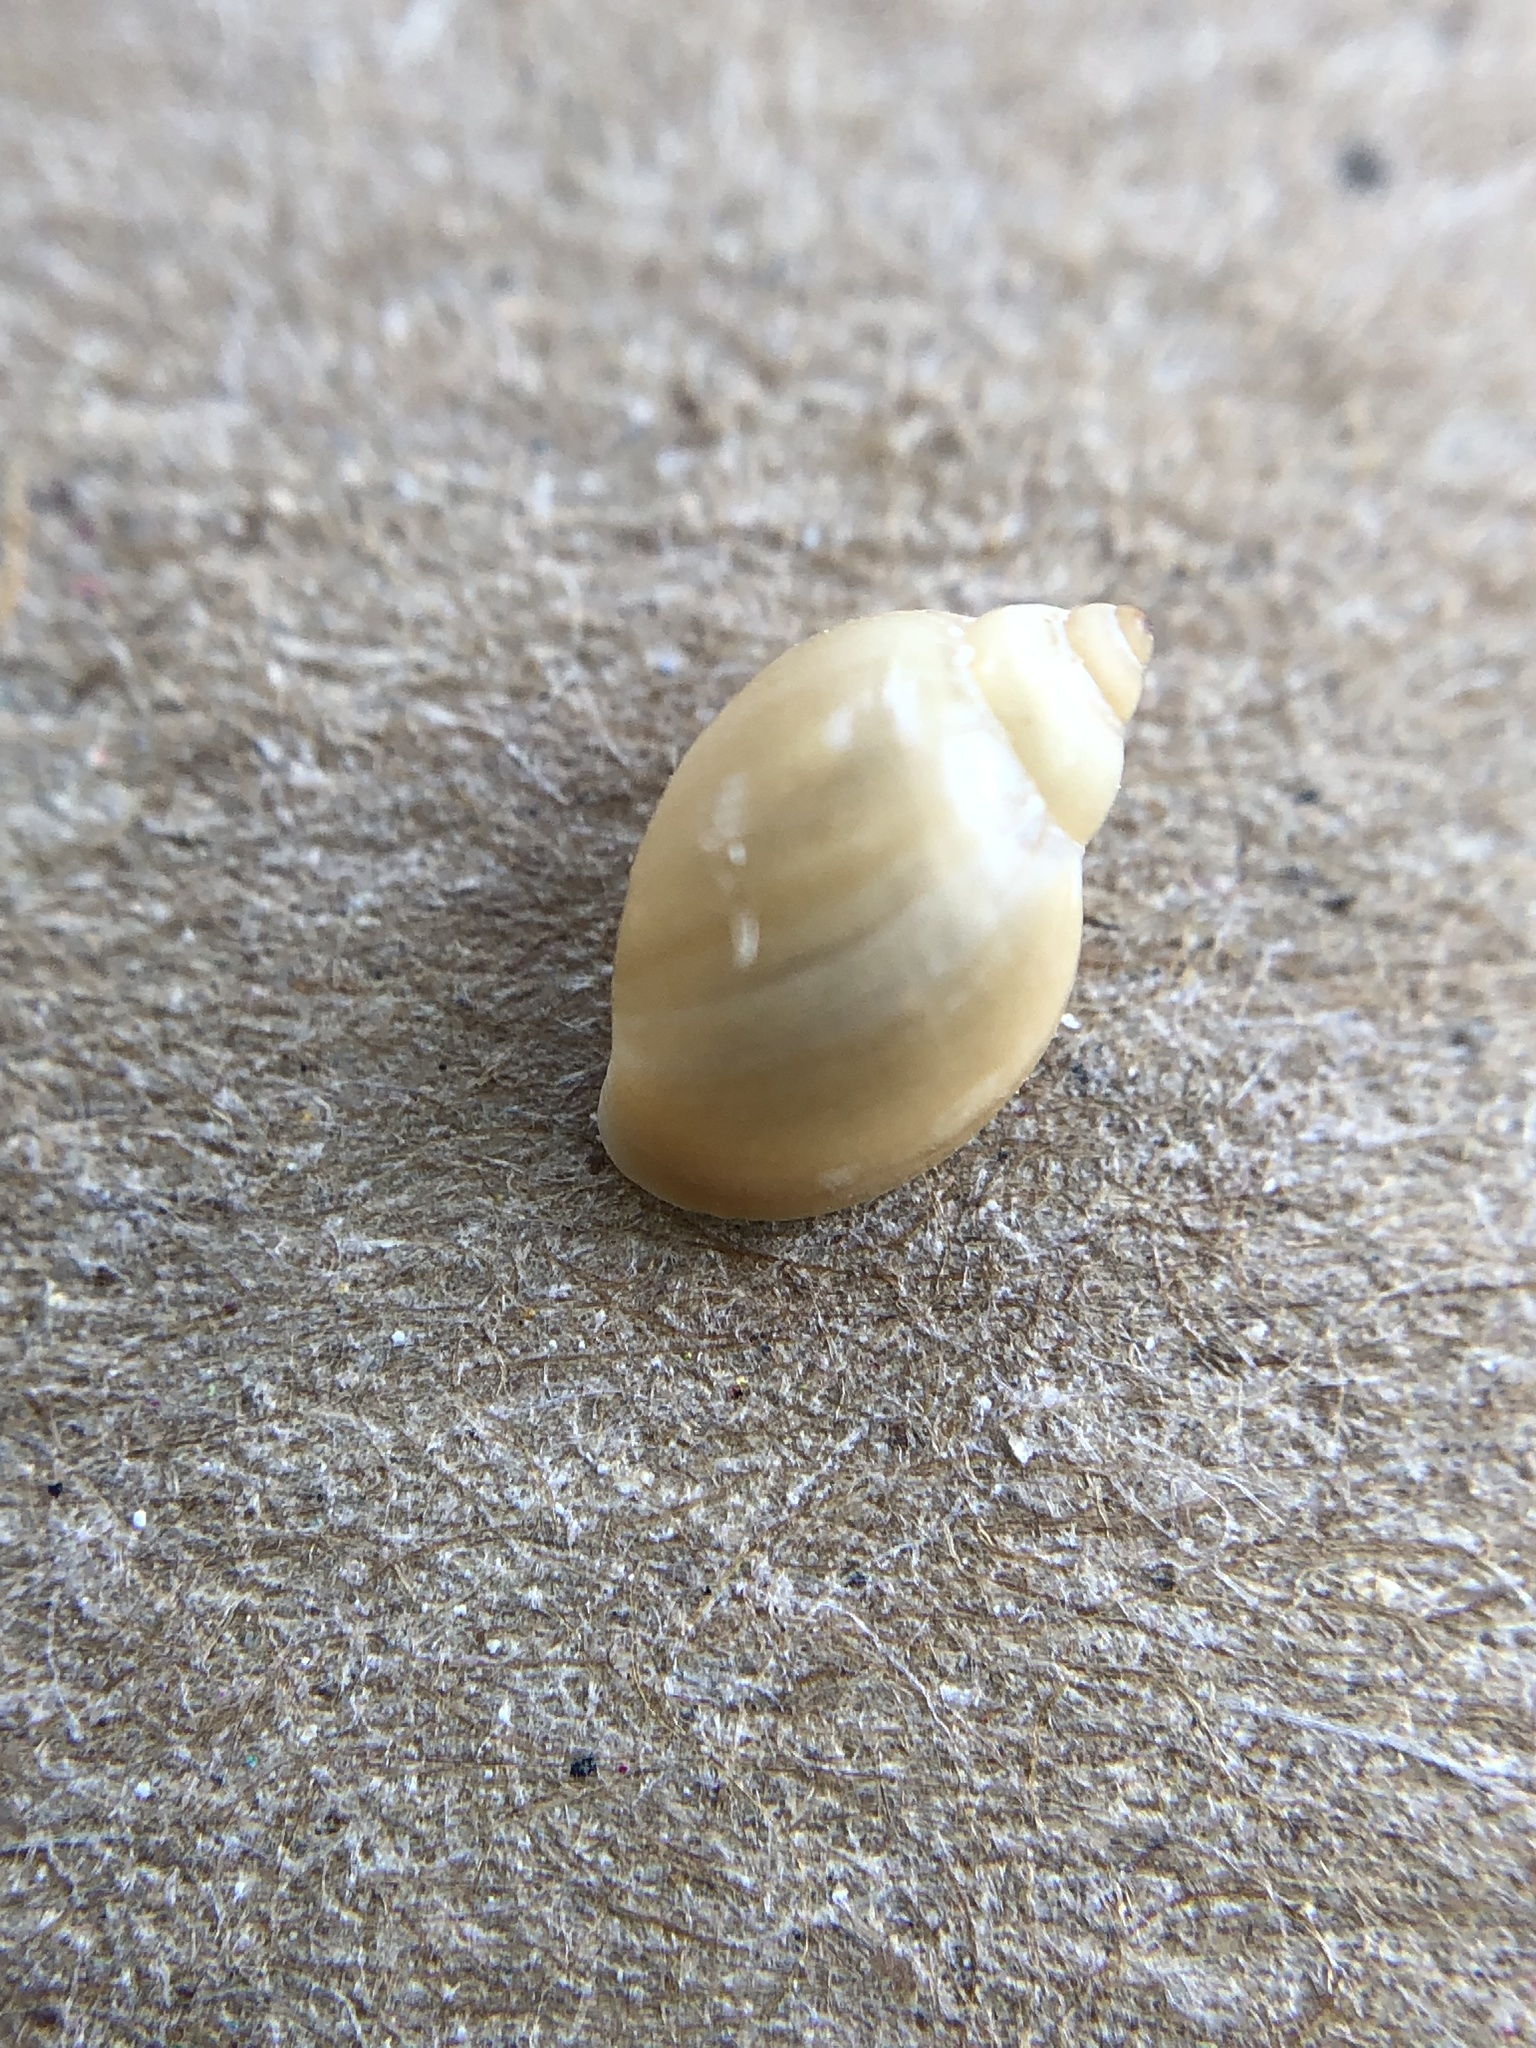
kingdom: Animalia
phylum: Mollusca
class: Gastropoda
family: Physidae
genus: Physella
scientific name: Physella acuta
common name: European physa
